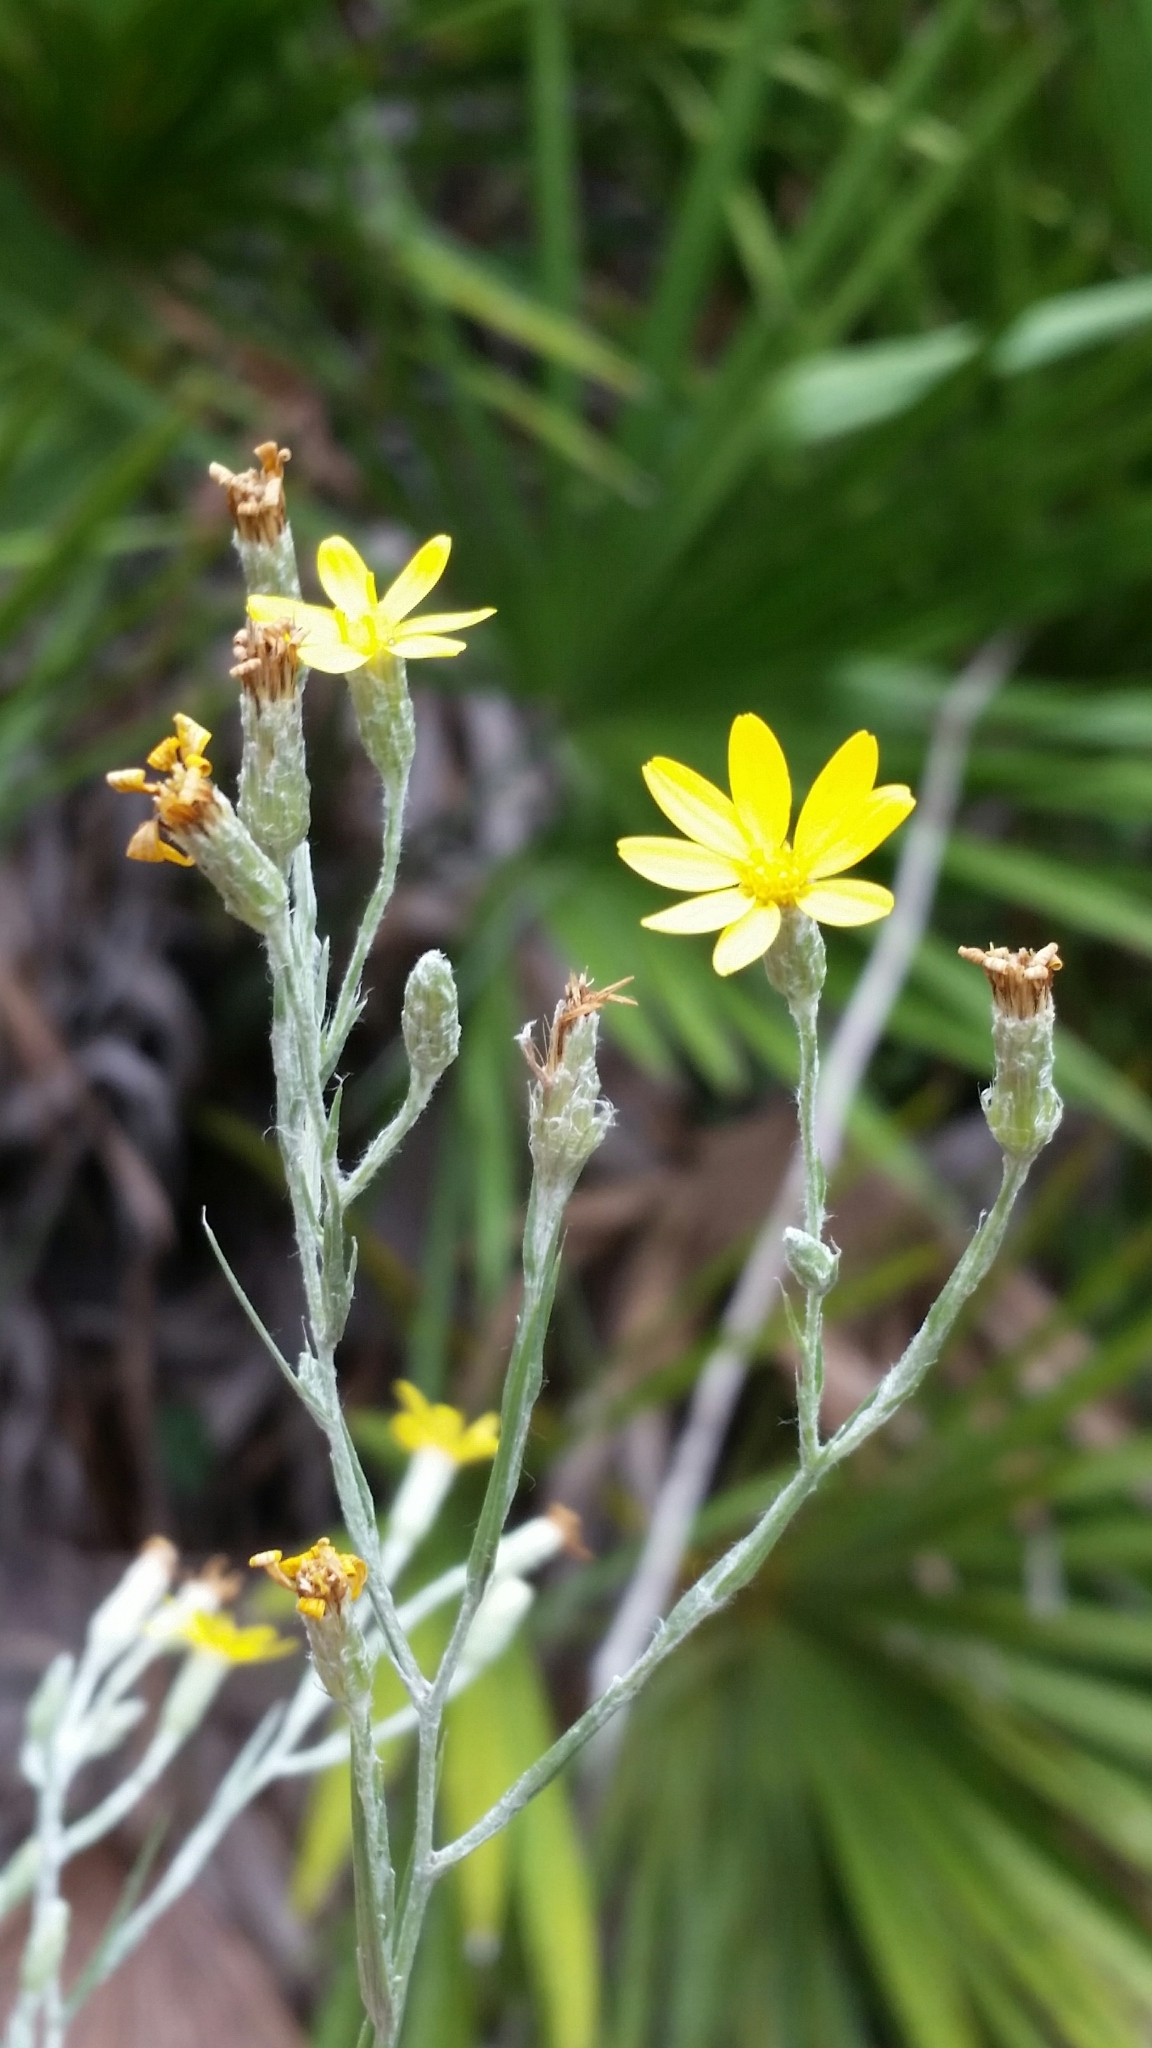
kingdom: Plantae
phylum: Tracheophyta
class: Magnoliopsida
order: Asterales
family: Asteraceae
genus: Pityopsis
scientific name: Pityopsis graminifolia
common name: Grass-leaf golden-aster
